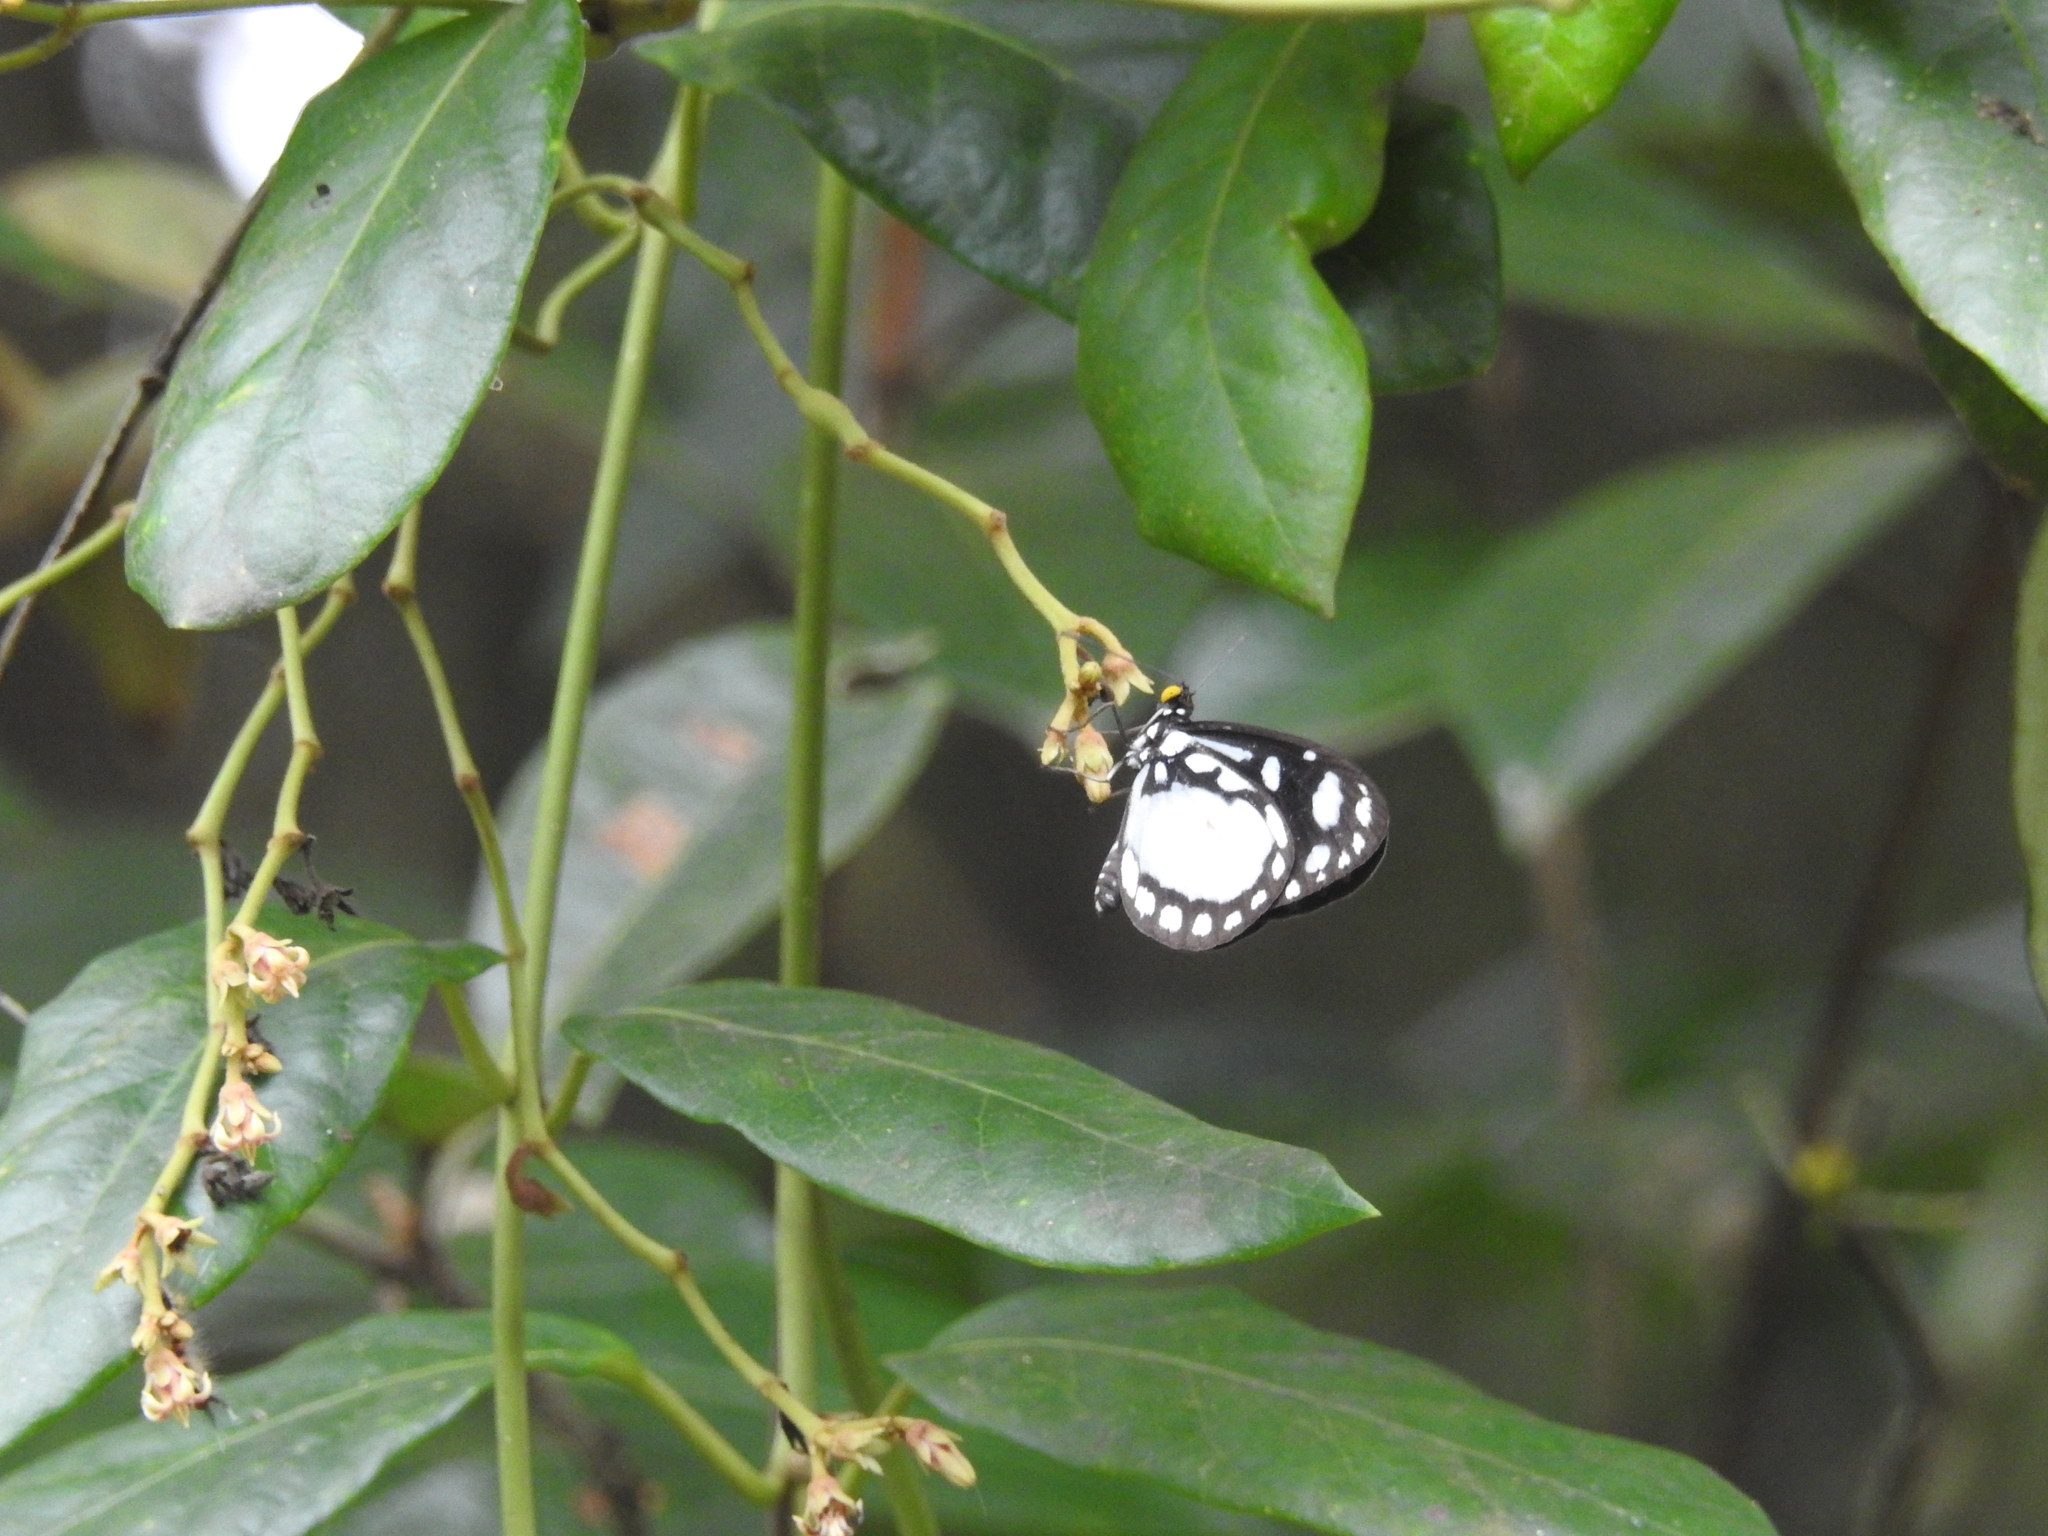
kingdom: Animalia
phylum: Arthropoda
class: Insecta
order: Lepidoptera
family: Nymphalidae
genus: Tellervo
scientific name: Tellervo zoilus
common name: Hamadryad
